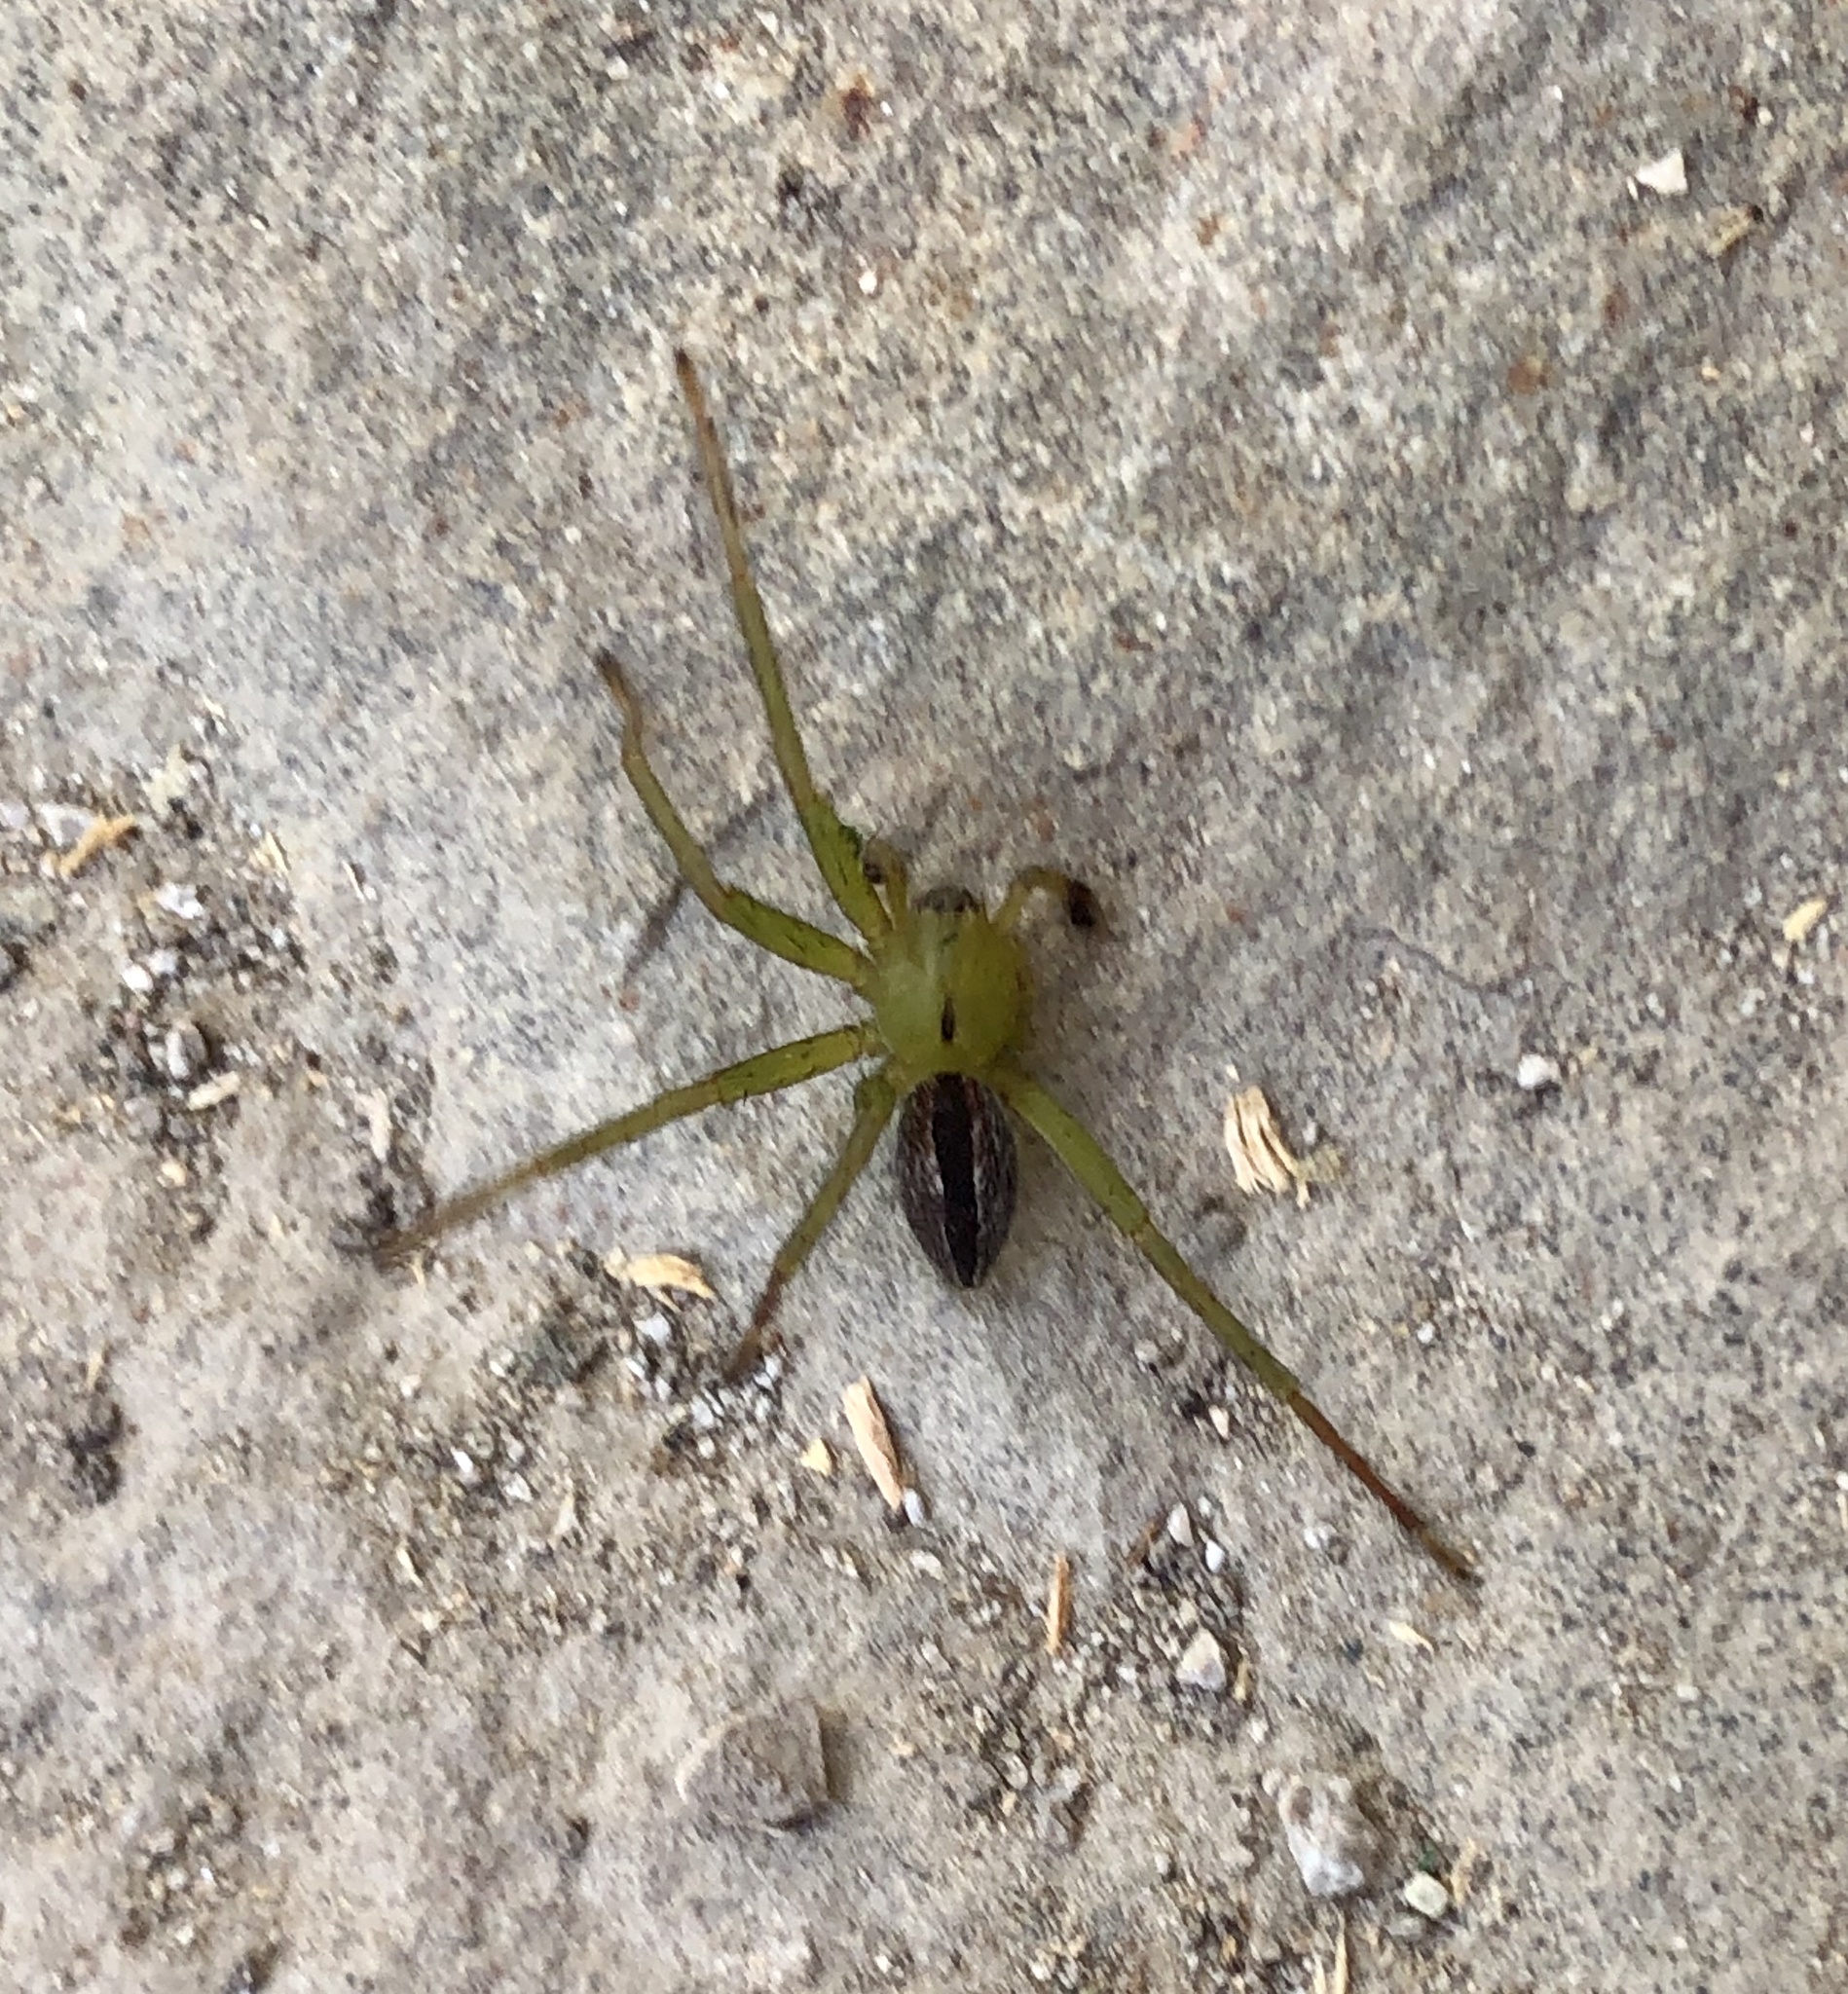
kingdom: Animalia
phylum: Arthropoda
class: Arachnida
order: Araneae
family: Sparassidae
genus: Micrommata
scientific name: Micrommata ligurina
